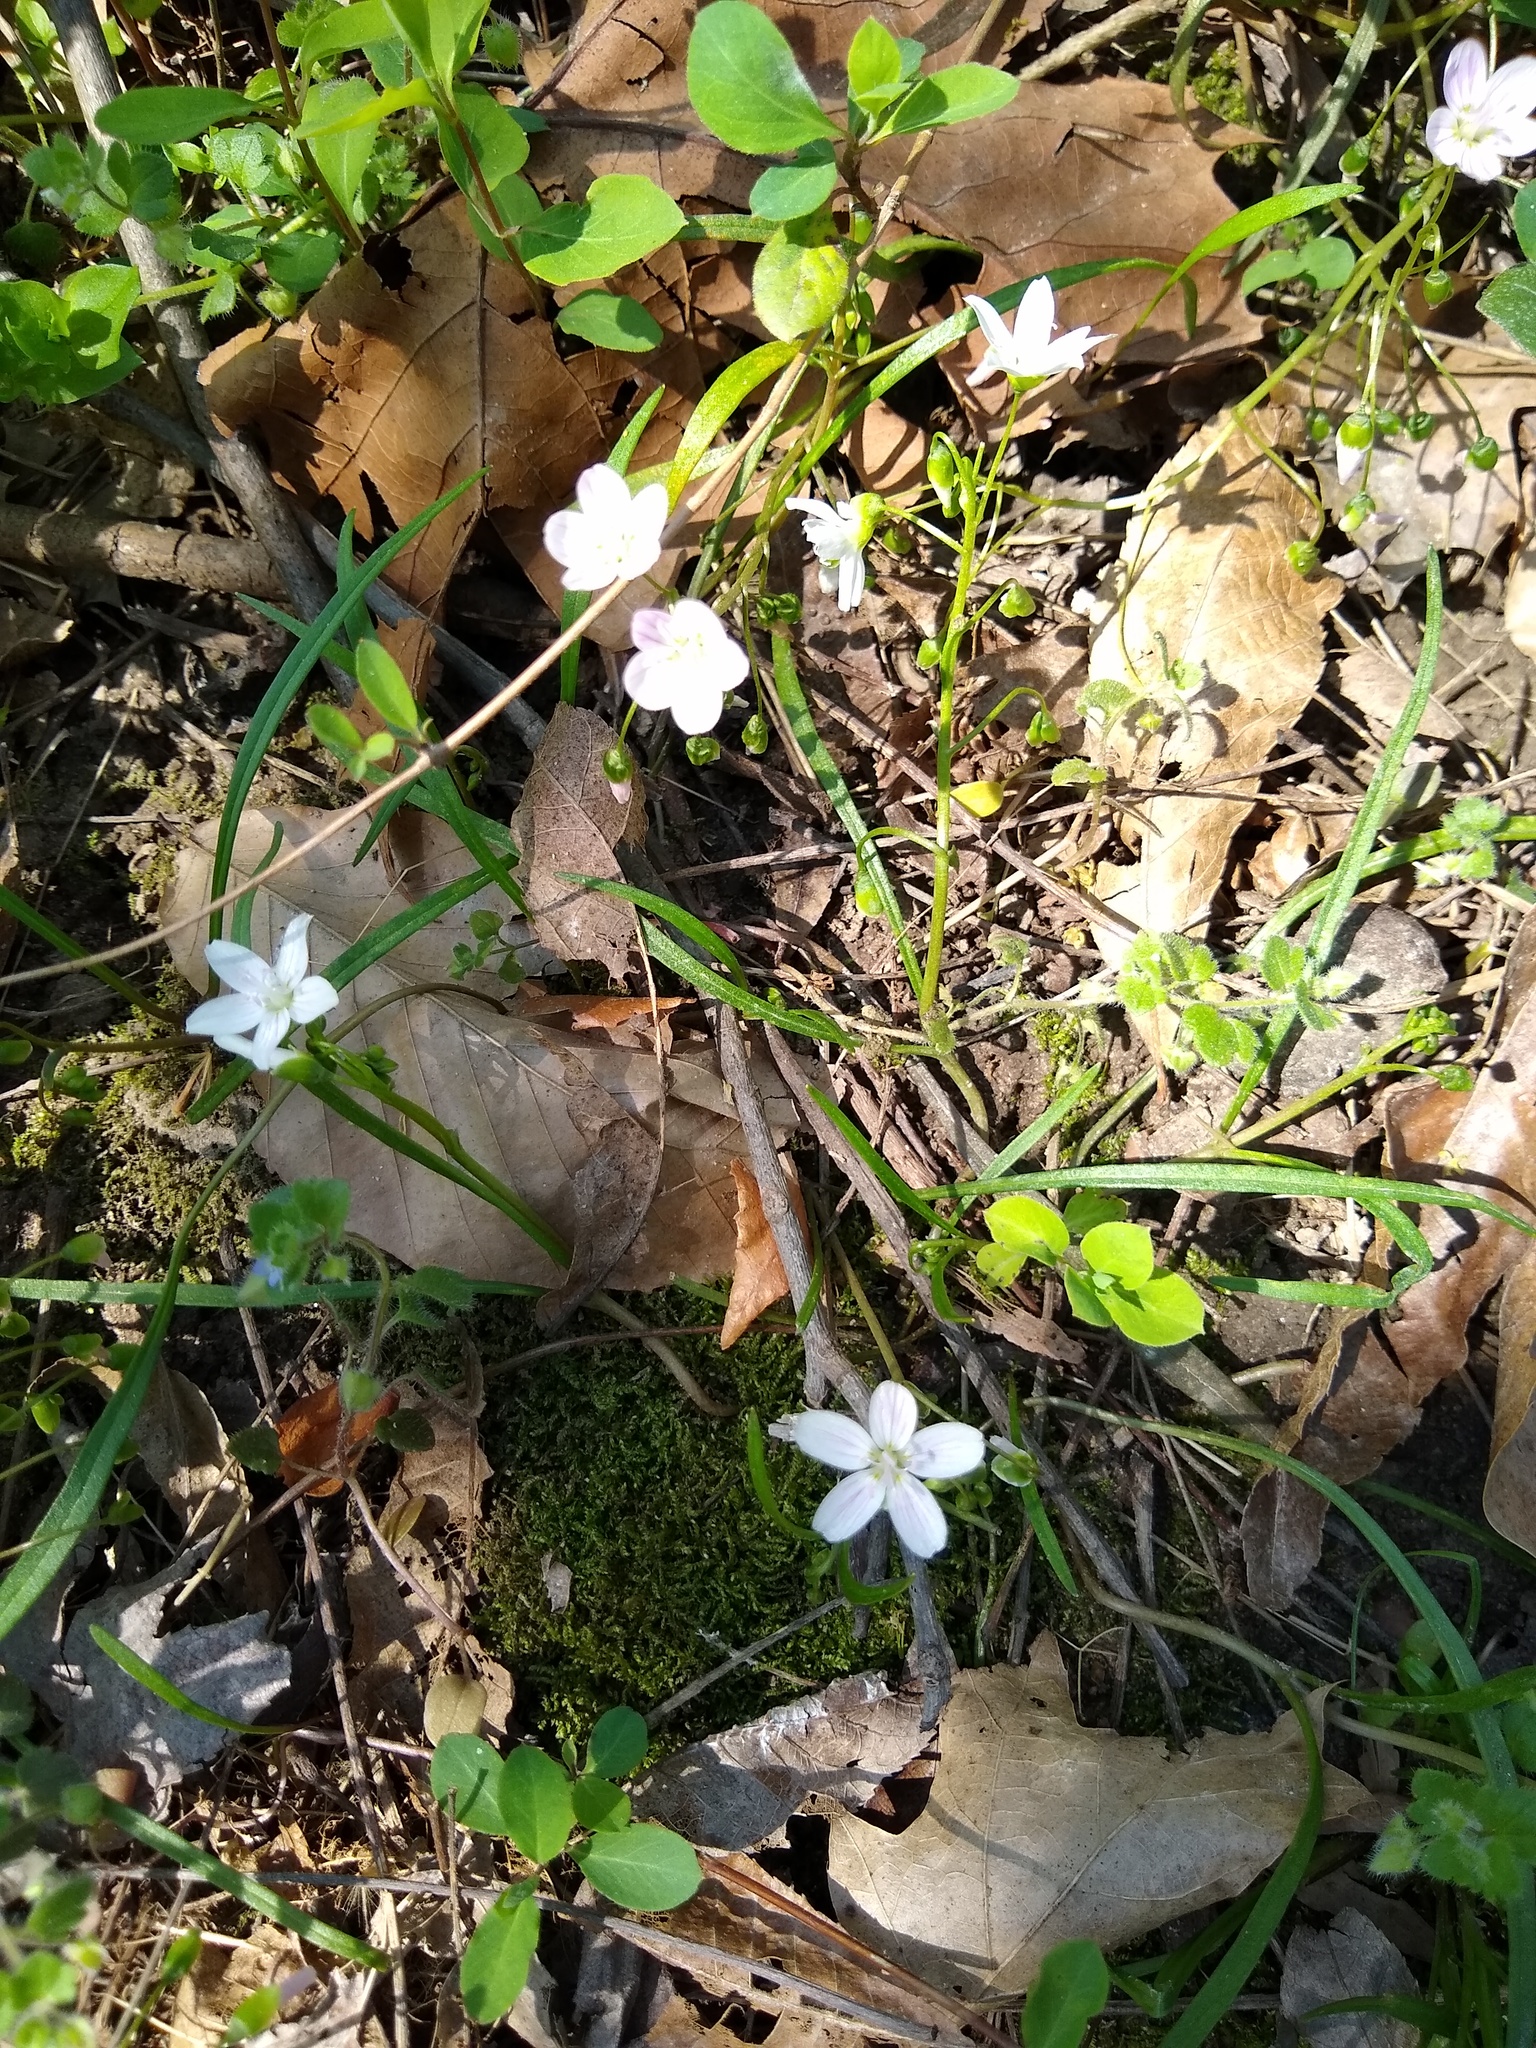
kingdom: Plantae
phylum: Tracheophyta
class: Magnoliopsida
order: Caryophyllales
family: Montiaceae
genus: Claytonia
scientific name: Claytonia virginica
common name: Virginia springbeauty
